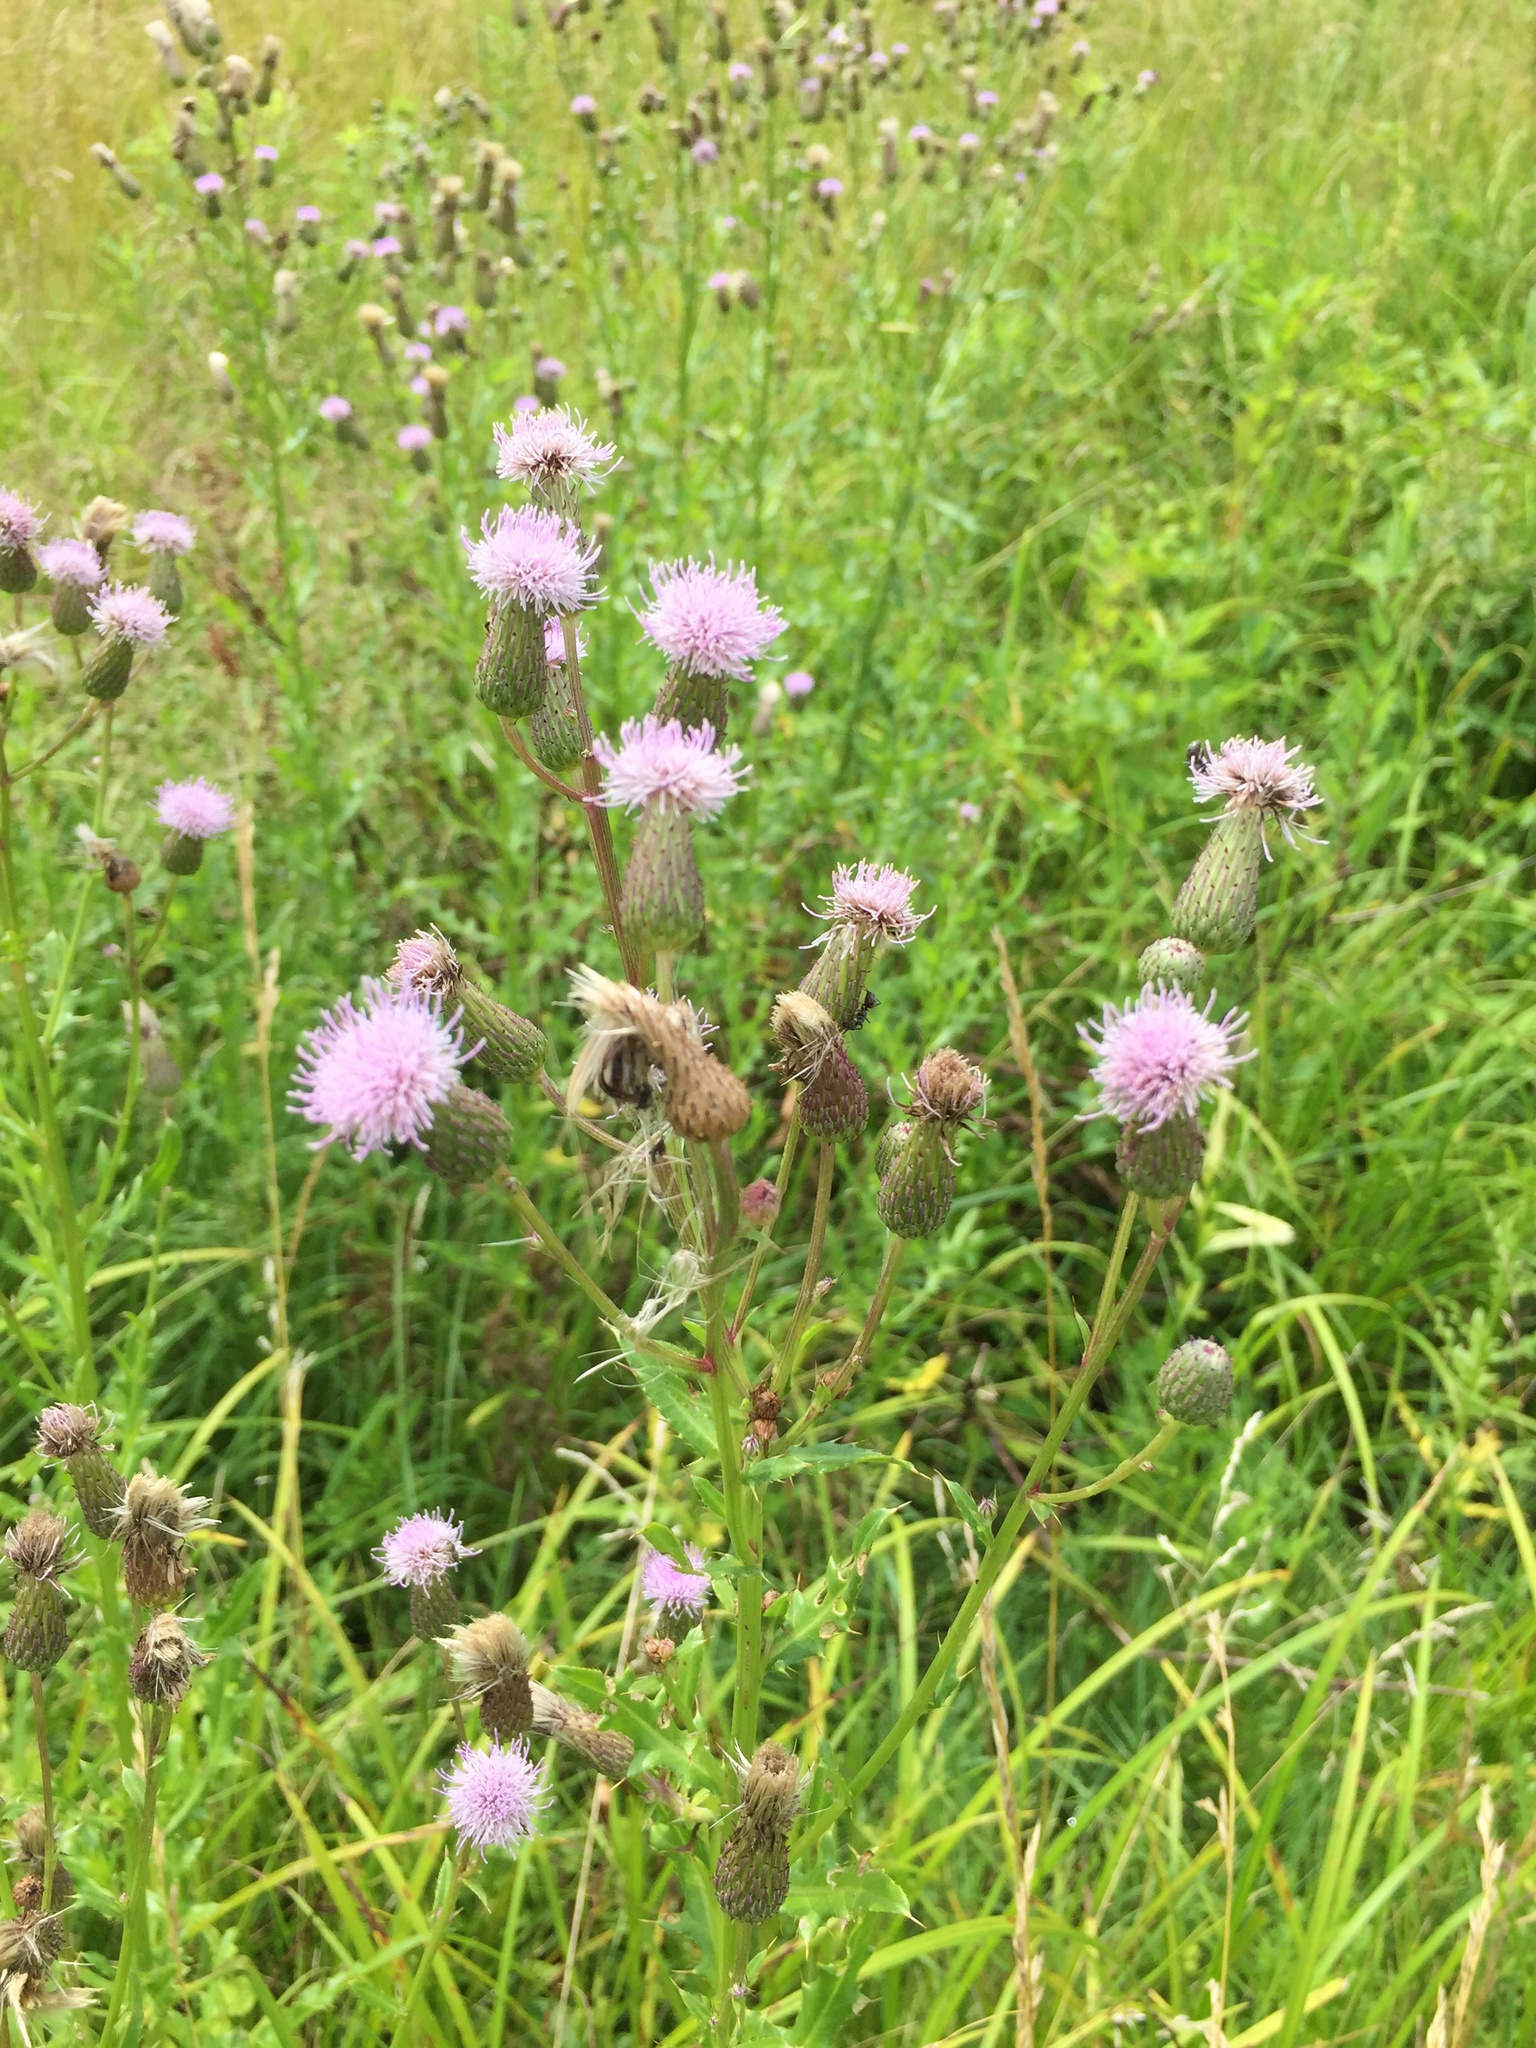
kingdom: Plantae
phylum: Tracheophyta
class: Magnoliopsida
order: Asterales
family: Asteraceae
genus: Cirsium
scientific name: Cirsium arvense
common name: Creeping thistle
